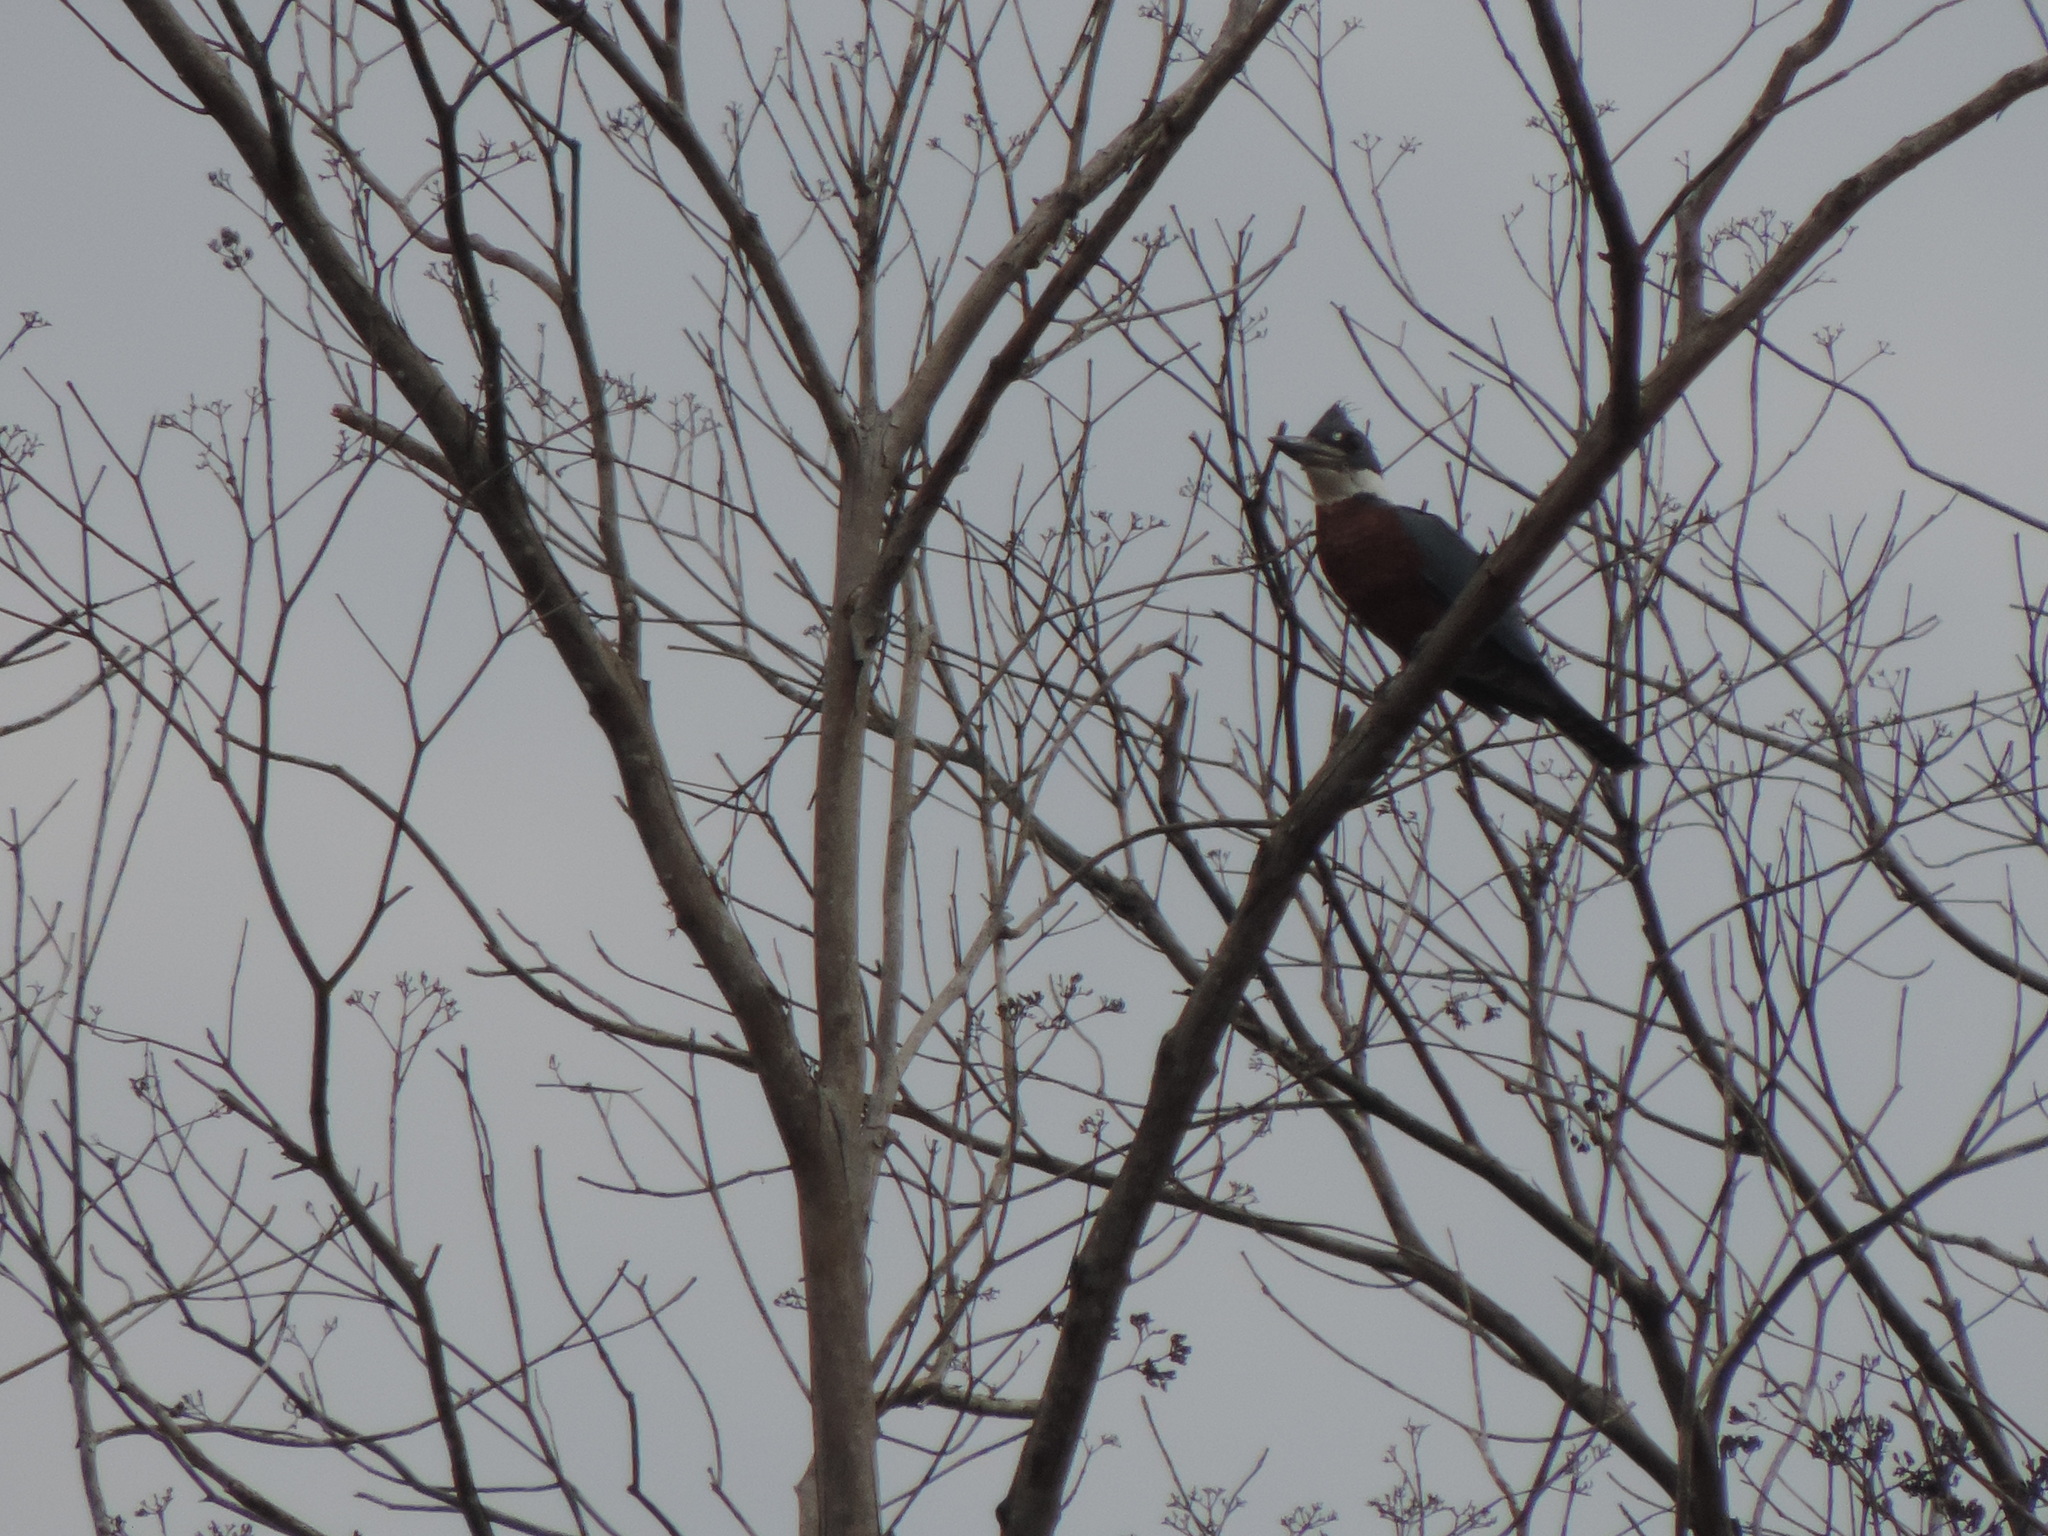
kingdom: Animalia
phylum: Chordata
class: Aves
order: Coraciiformes
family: Alcedinidae
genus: Megaceryle
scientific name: Megaceryle torquata
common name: Ringed kingfisher
